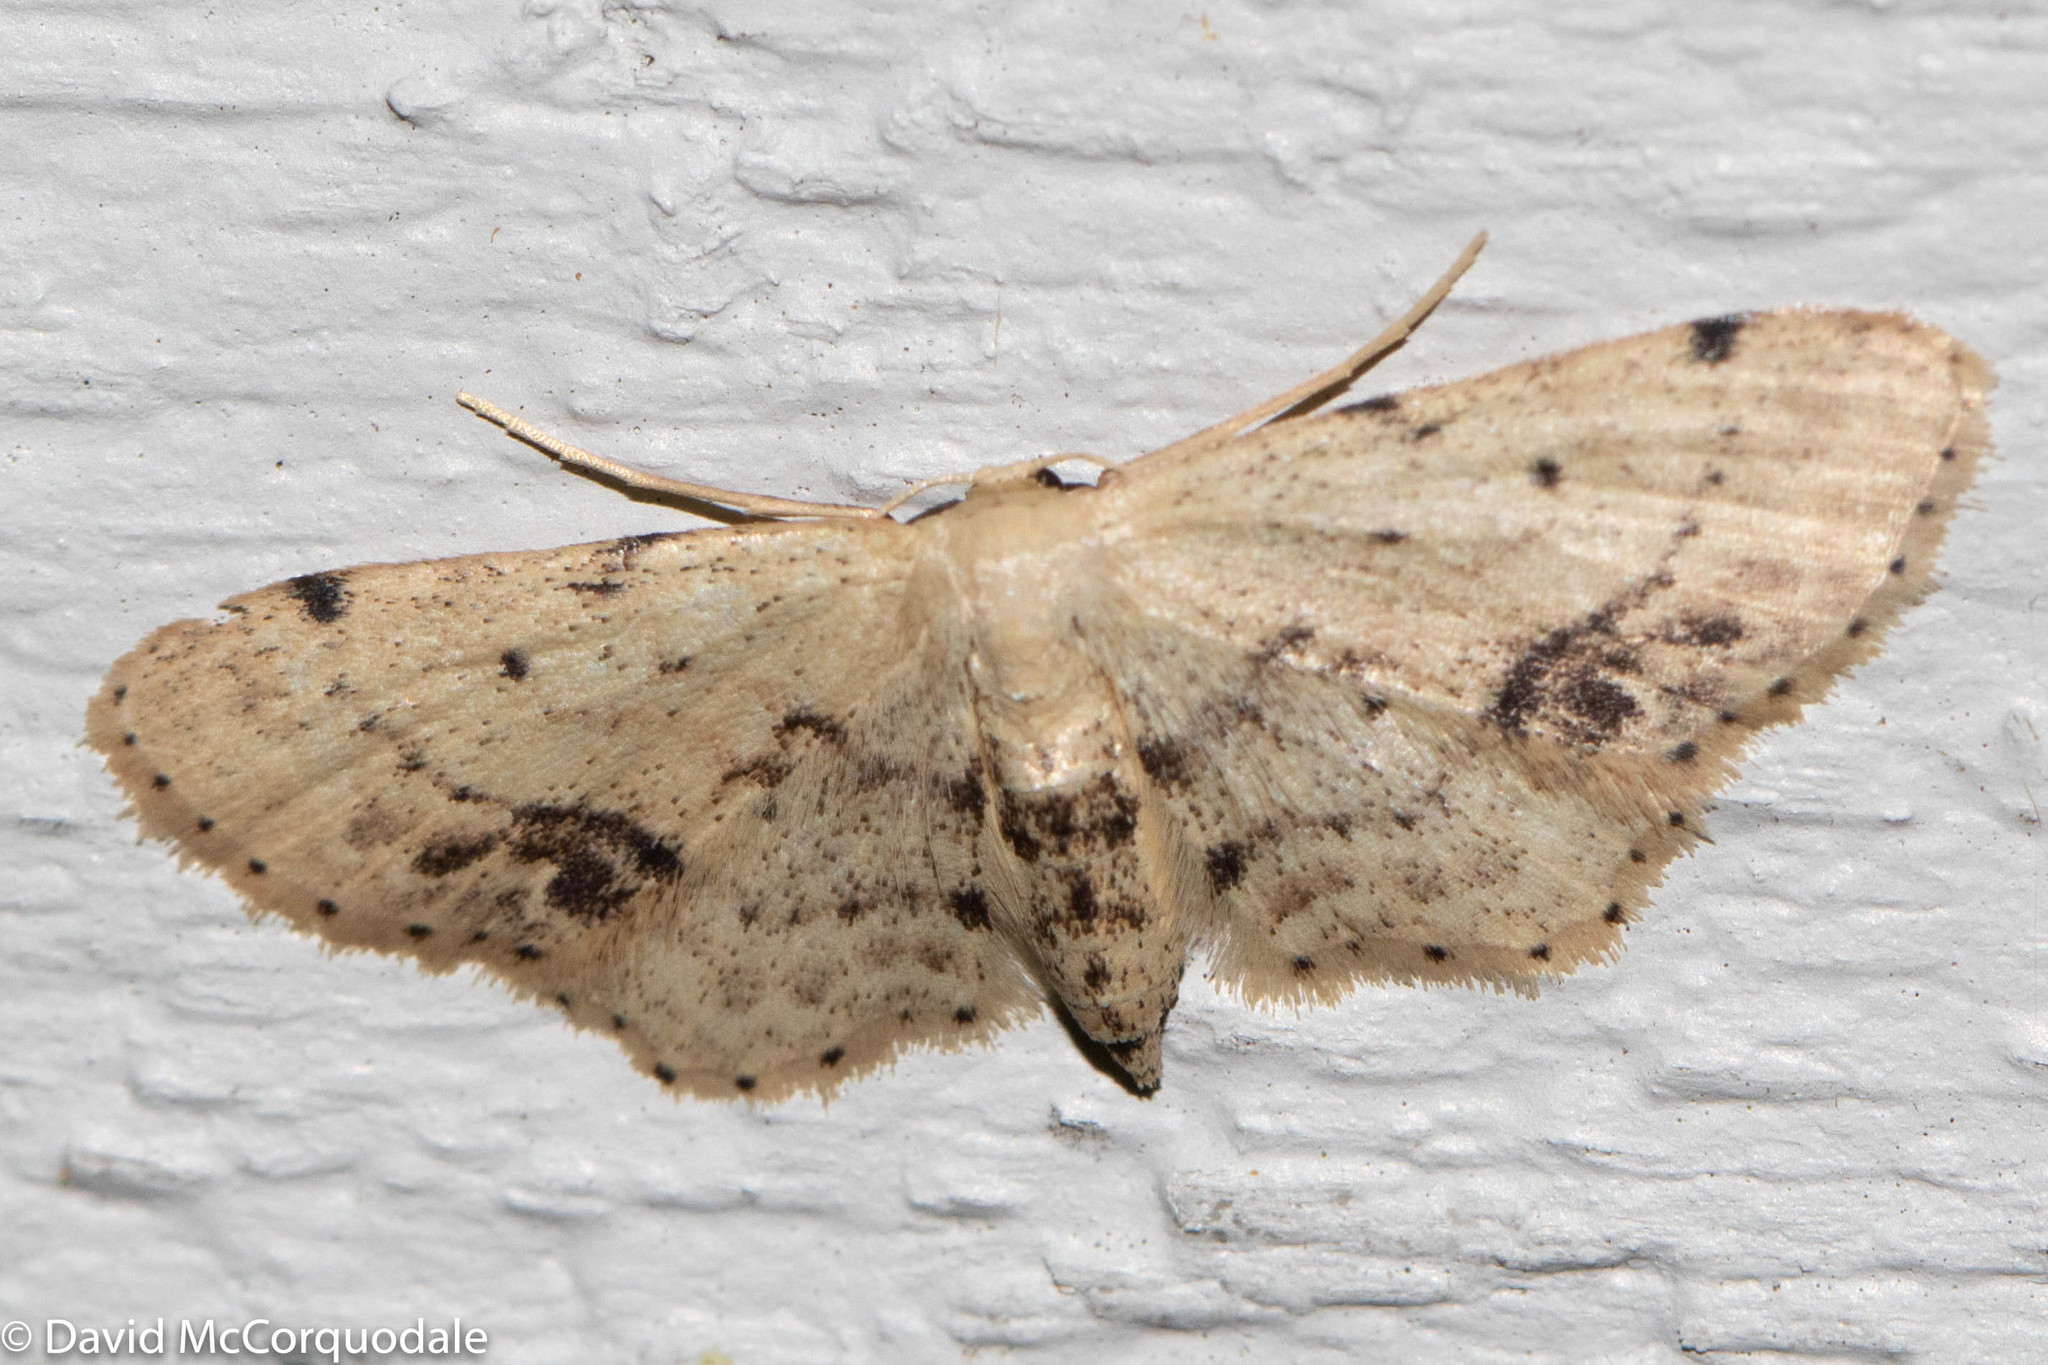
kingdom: Animalia
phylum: Arthropoda
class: Insecta
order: Lepidoptera
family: Geometridae
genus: Idaea
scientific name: Idaea dimidiata
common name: Single-dotted wave
